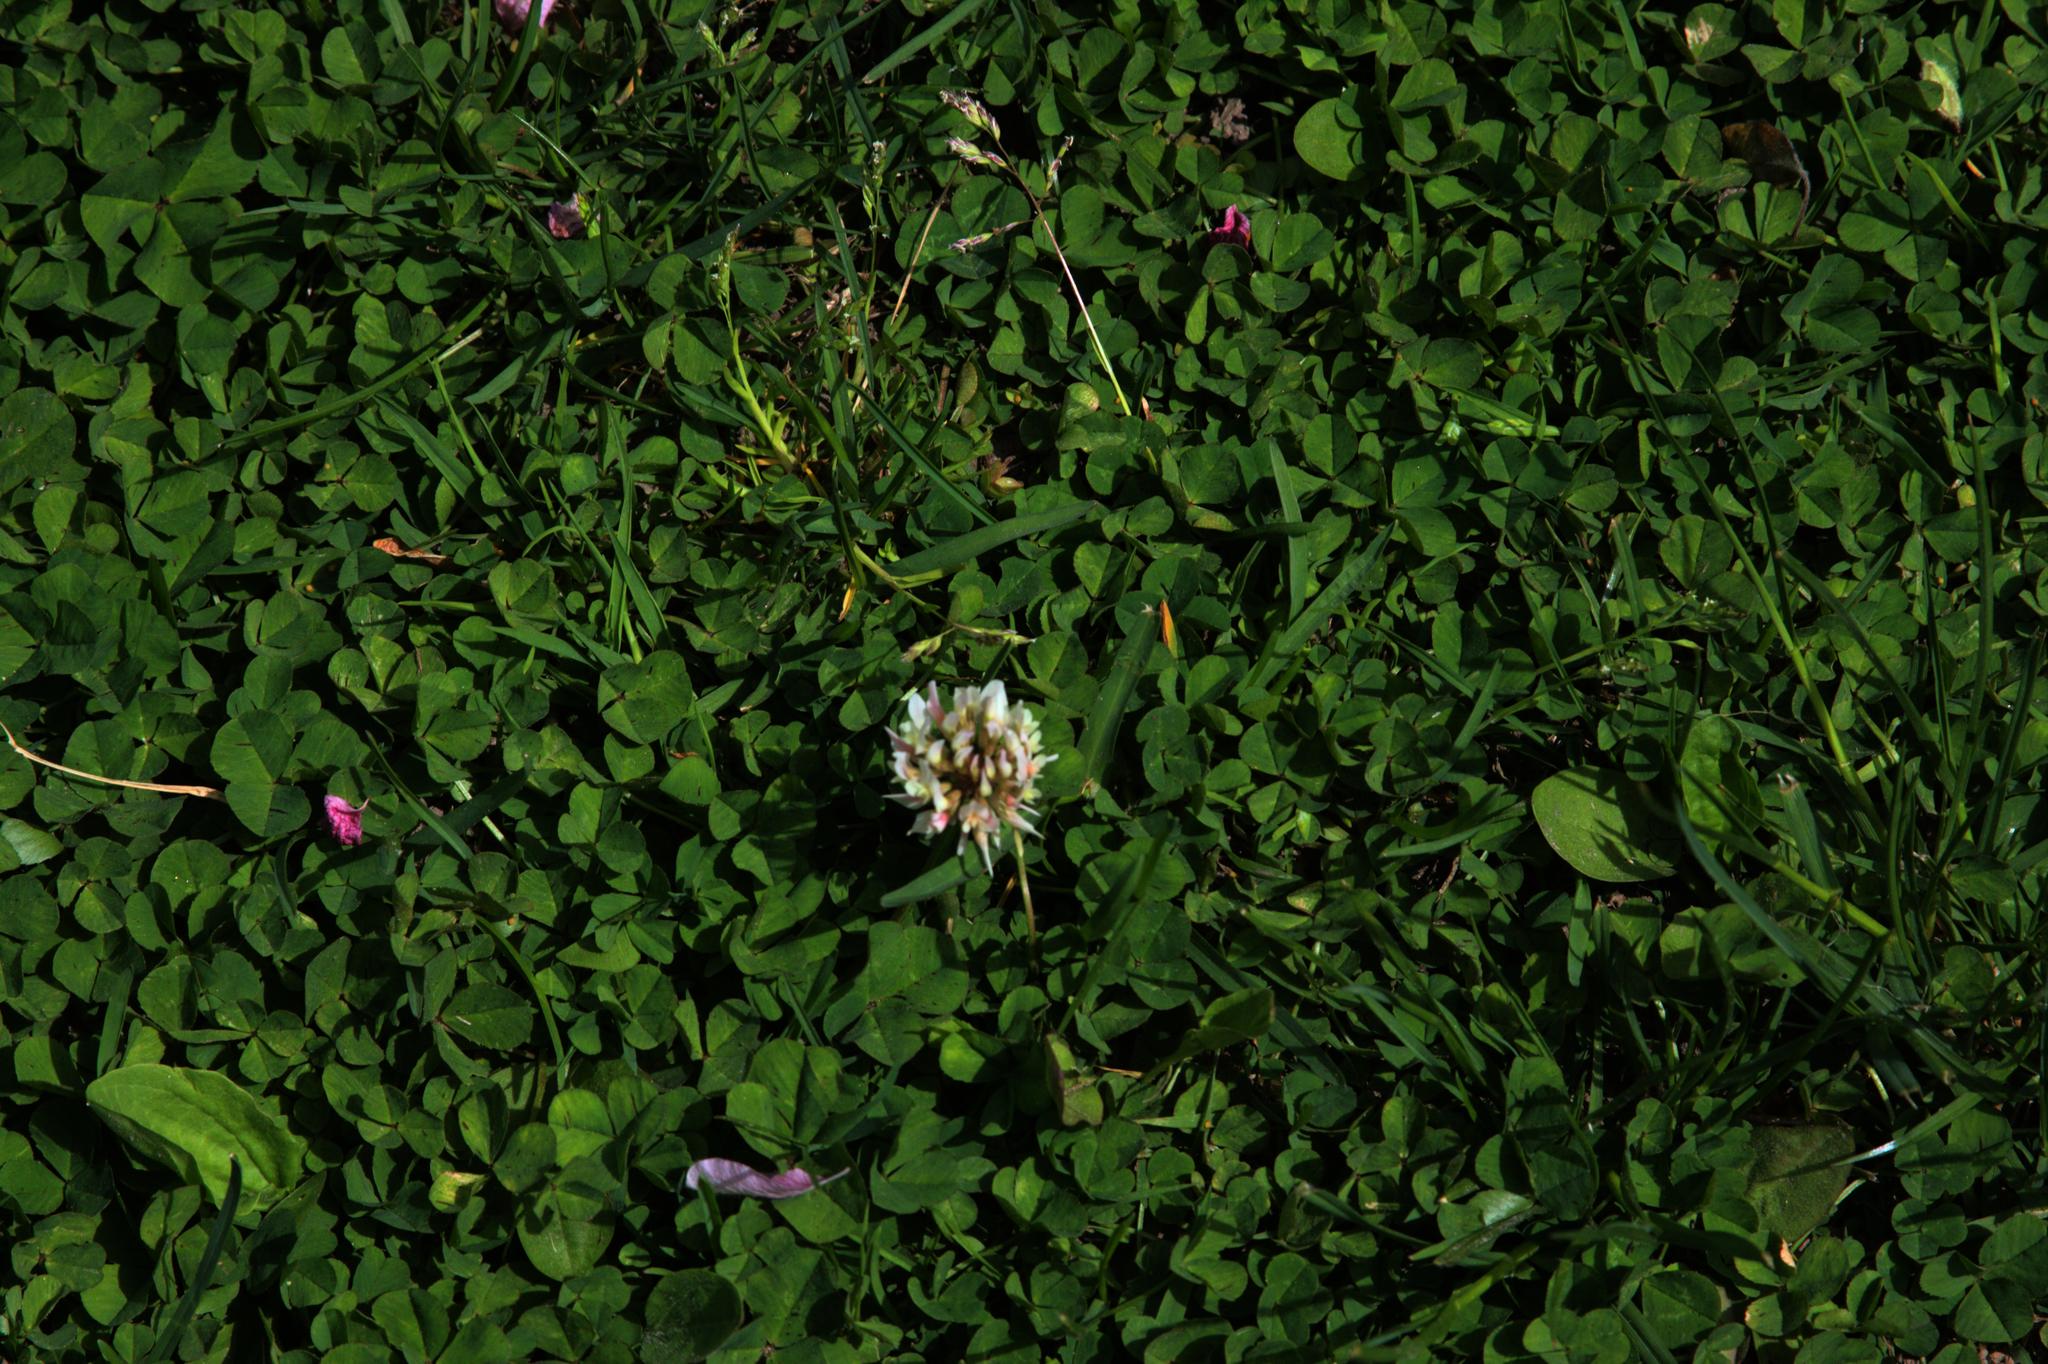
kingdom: Plantae
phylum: Tracheophyta
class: Magnoliopsida
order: Fabales
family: Fabaceae
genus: Trifolium
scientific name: Trifolium repens
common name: White clover
